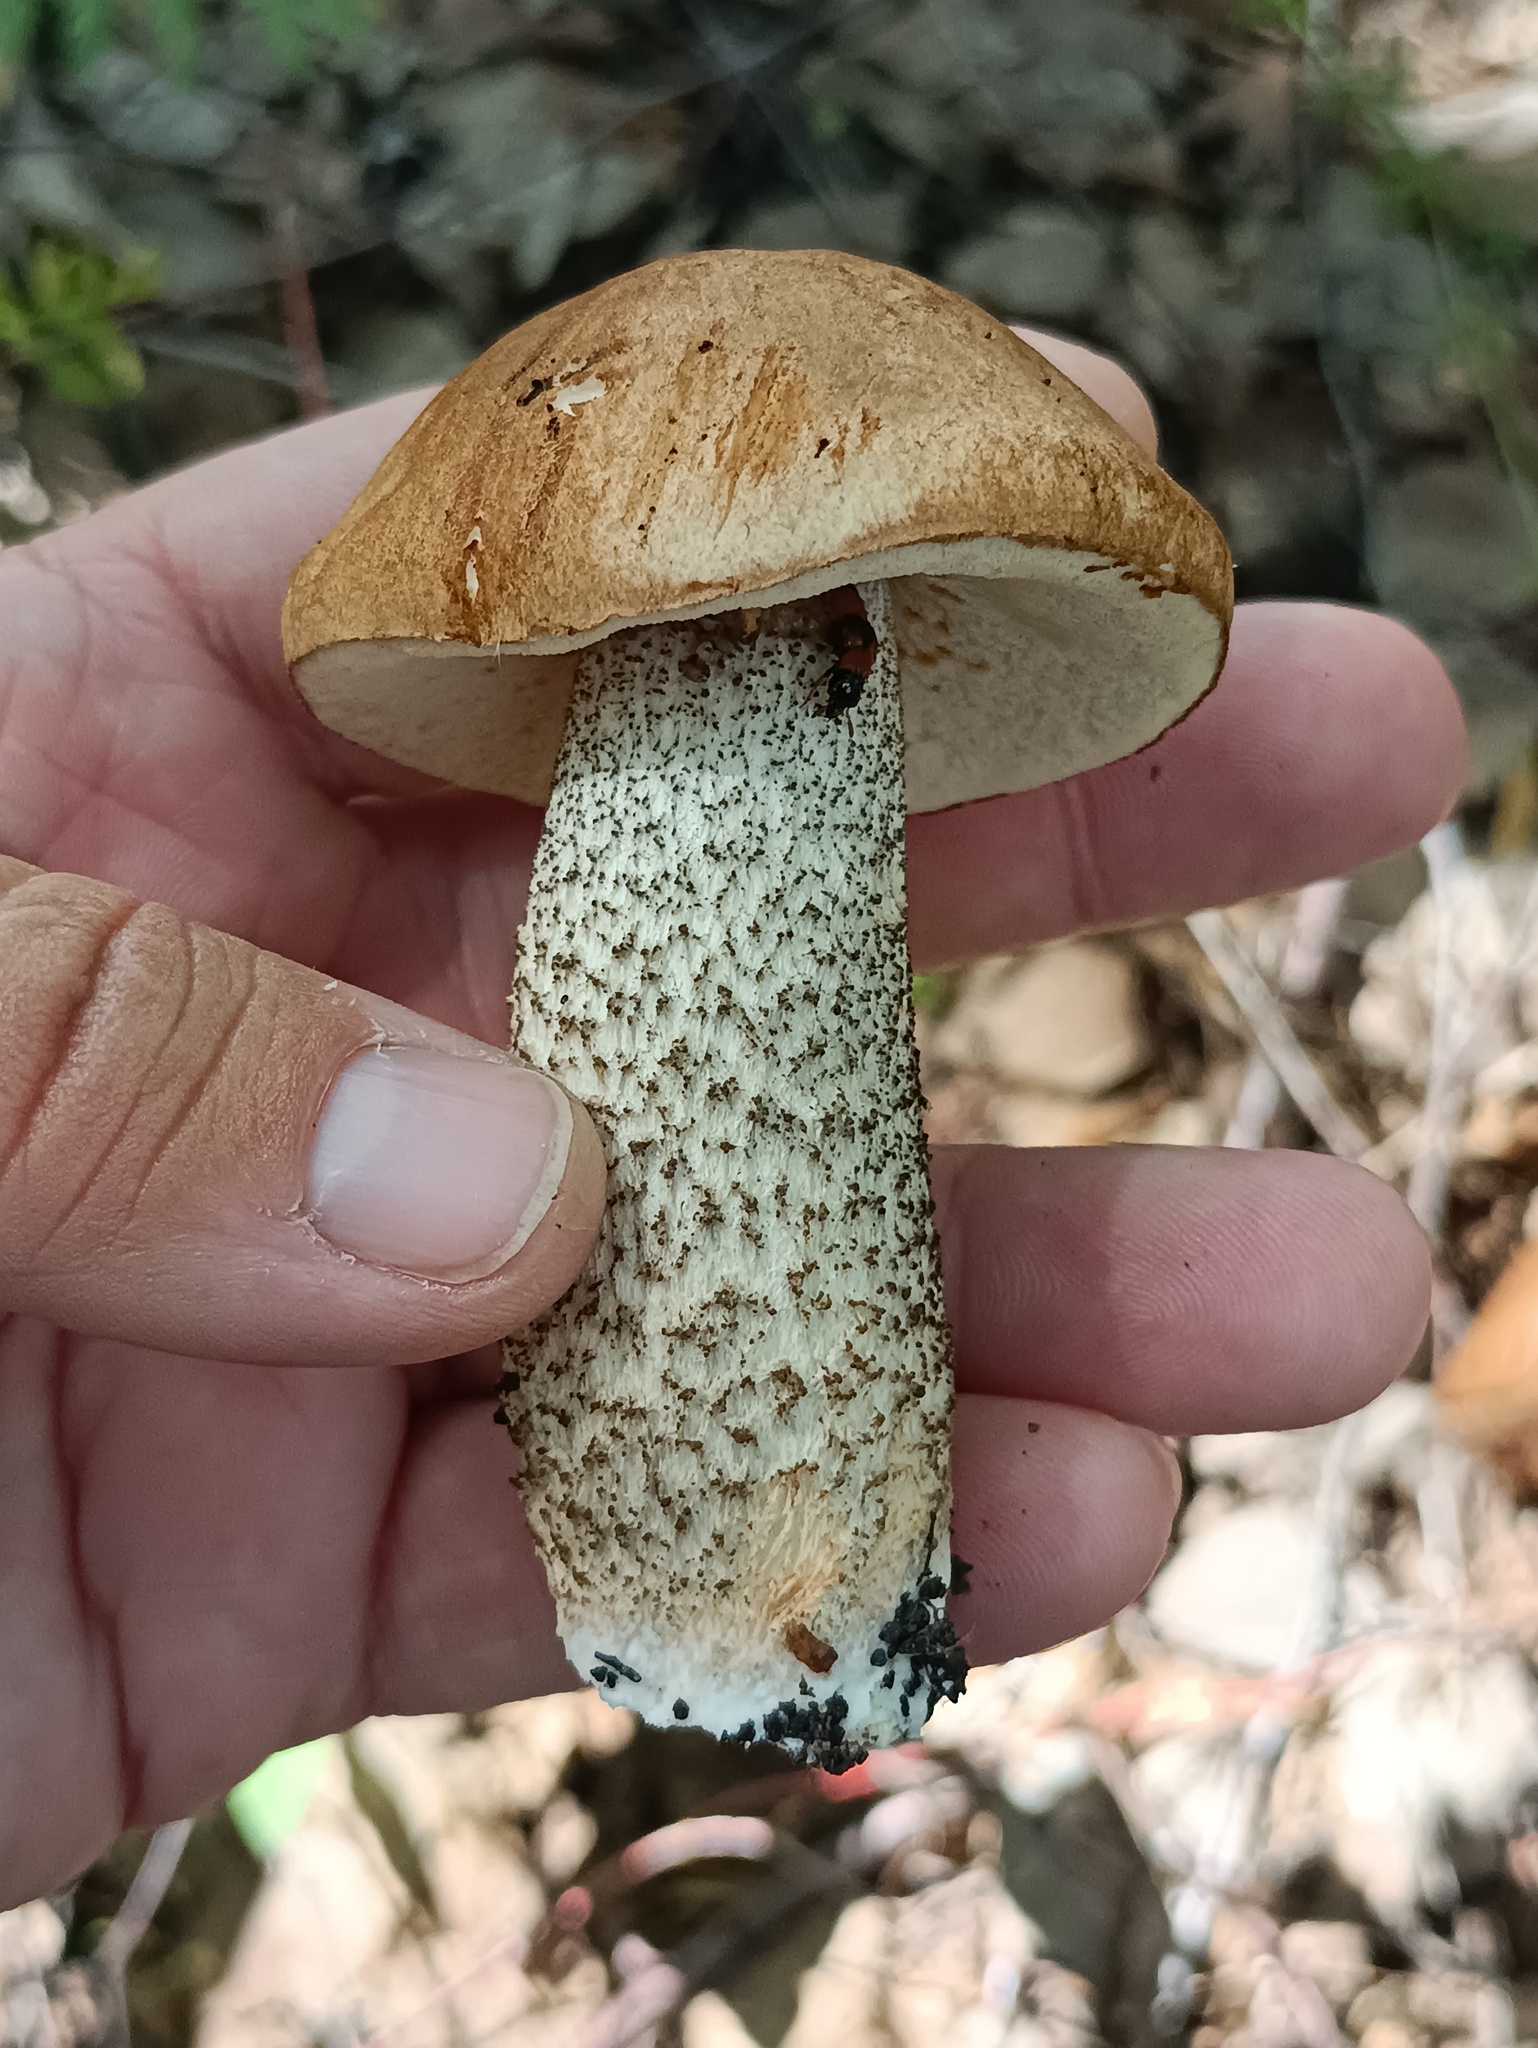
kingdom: Fungi
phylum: Basidiomycota
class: Agaricomycetes
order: Boletales
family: Boletaceae
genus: Leccinum
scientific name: Leccinum aurantiacum
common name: Orange bolete
